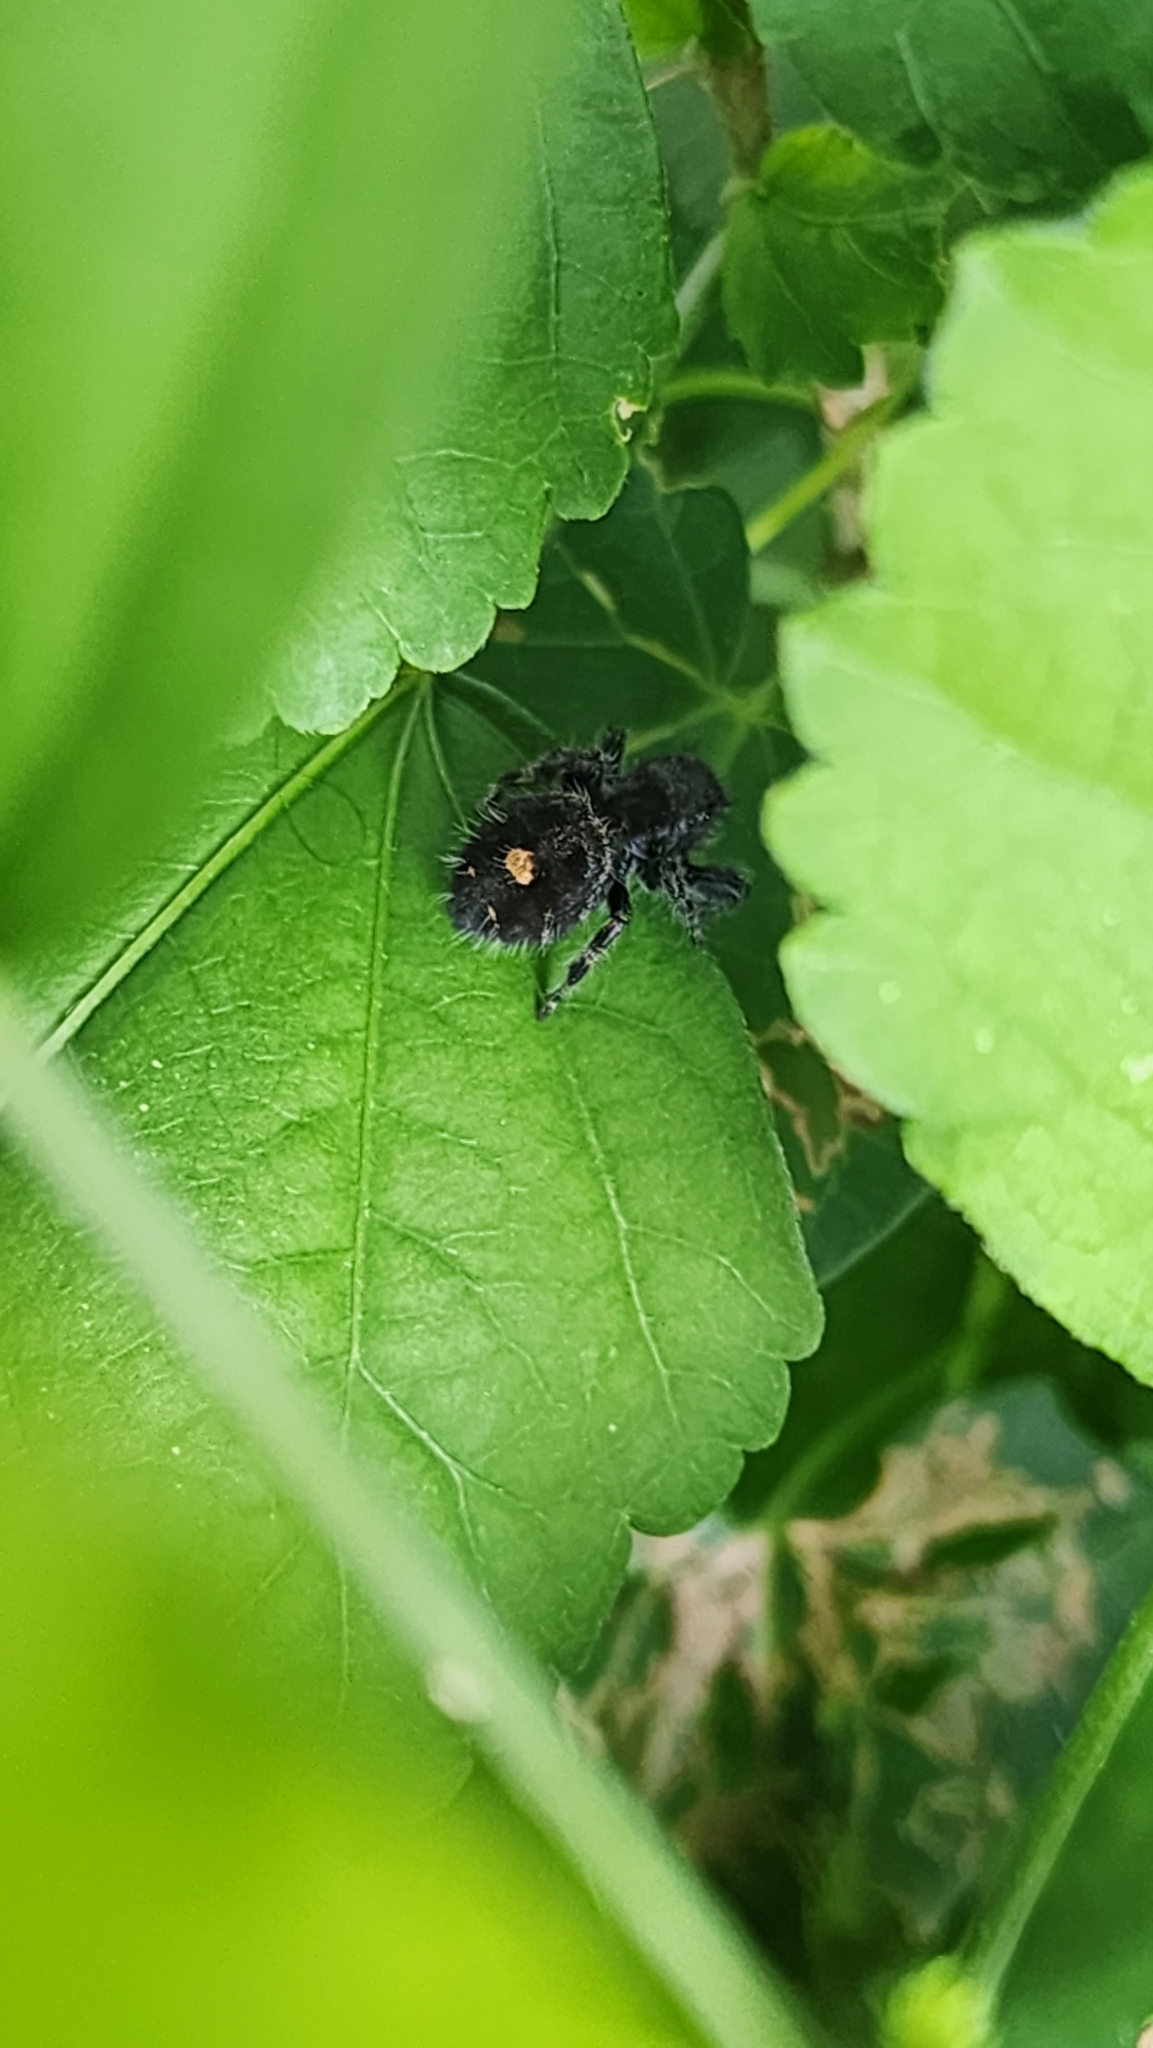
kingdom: Animalia
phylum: Arthropoda
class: Arachnida
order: Araneae
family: Salticidae
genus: Phidippus
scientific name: Phidippus audax
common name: Bold jumper
